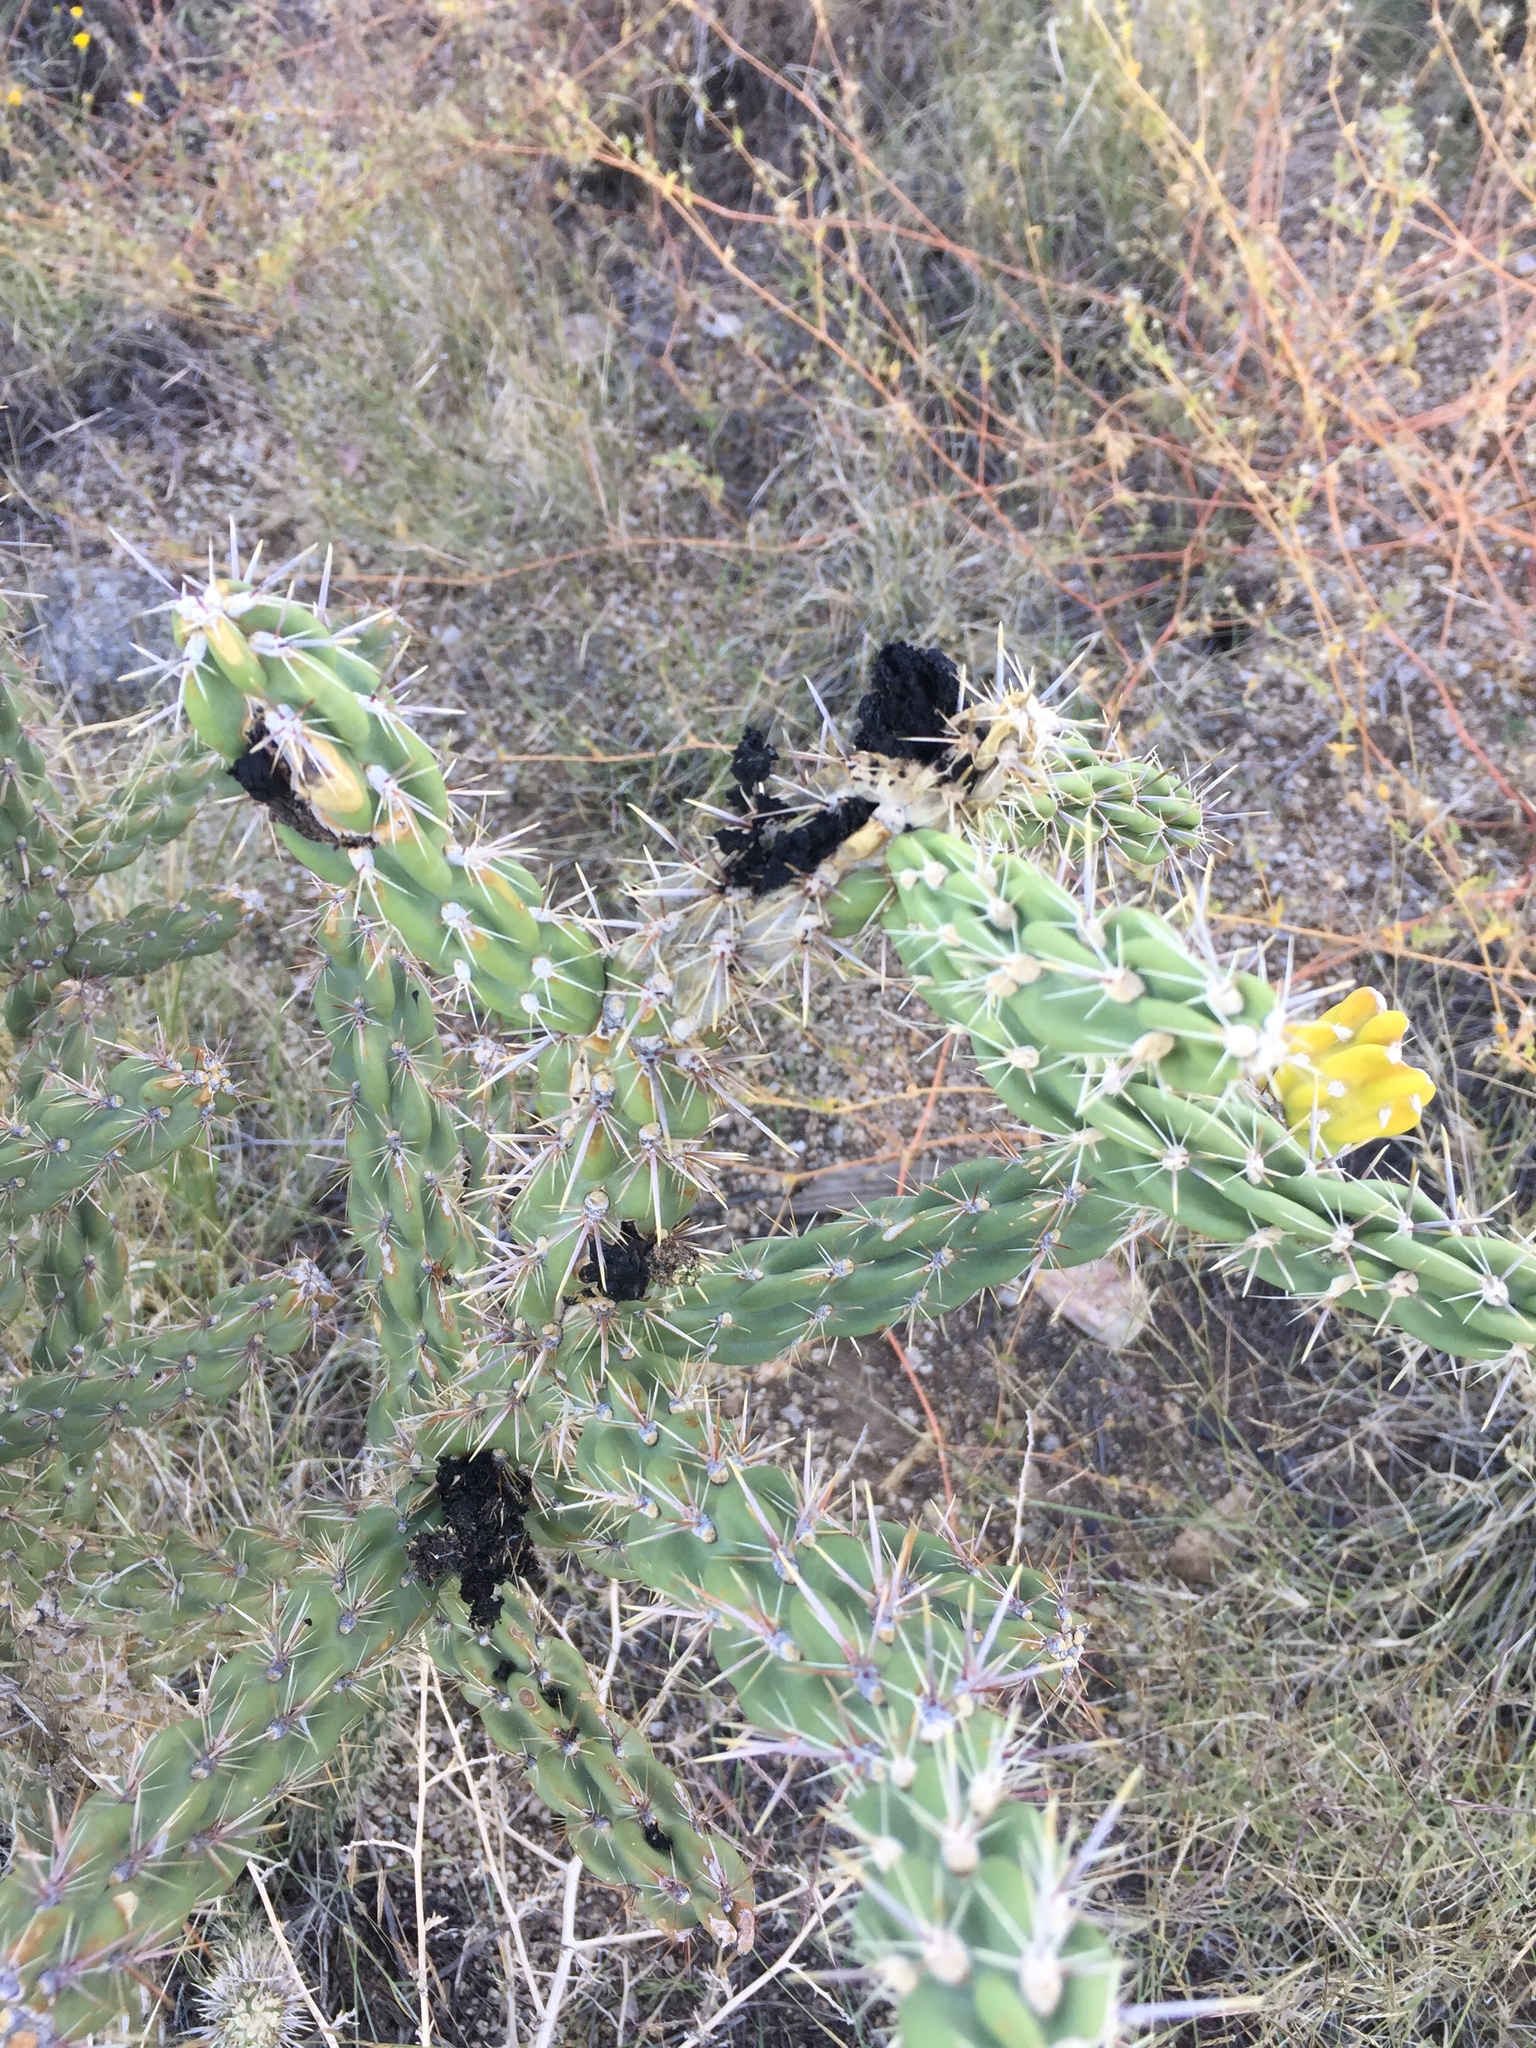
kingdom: Plantae
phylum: Tracheophyta
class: Magnoliopsida
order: Caryophyllales
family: Cactaceae
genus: Cylindropuntia
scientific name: Cylindropuntia imbricata
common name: Candelabrum cactus
